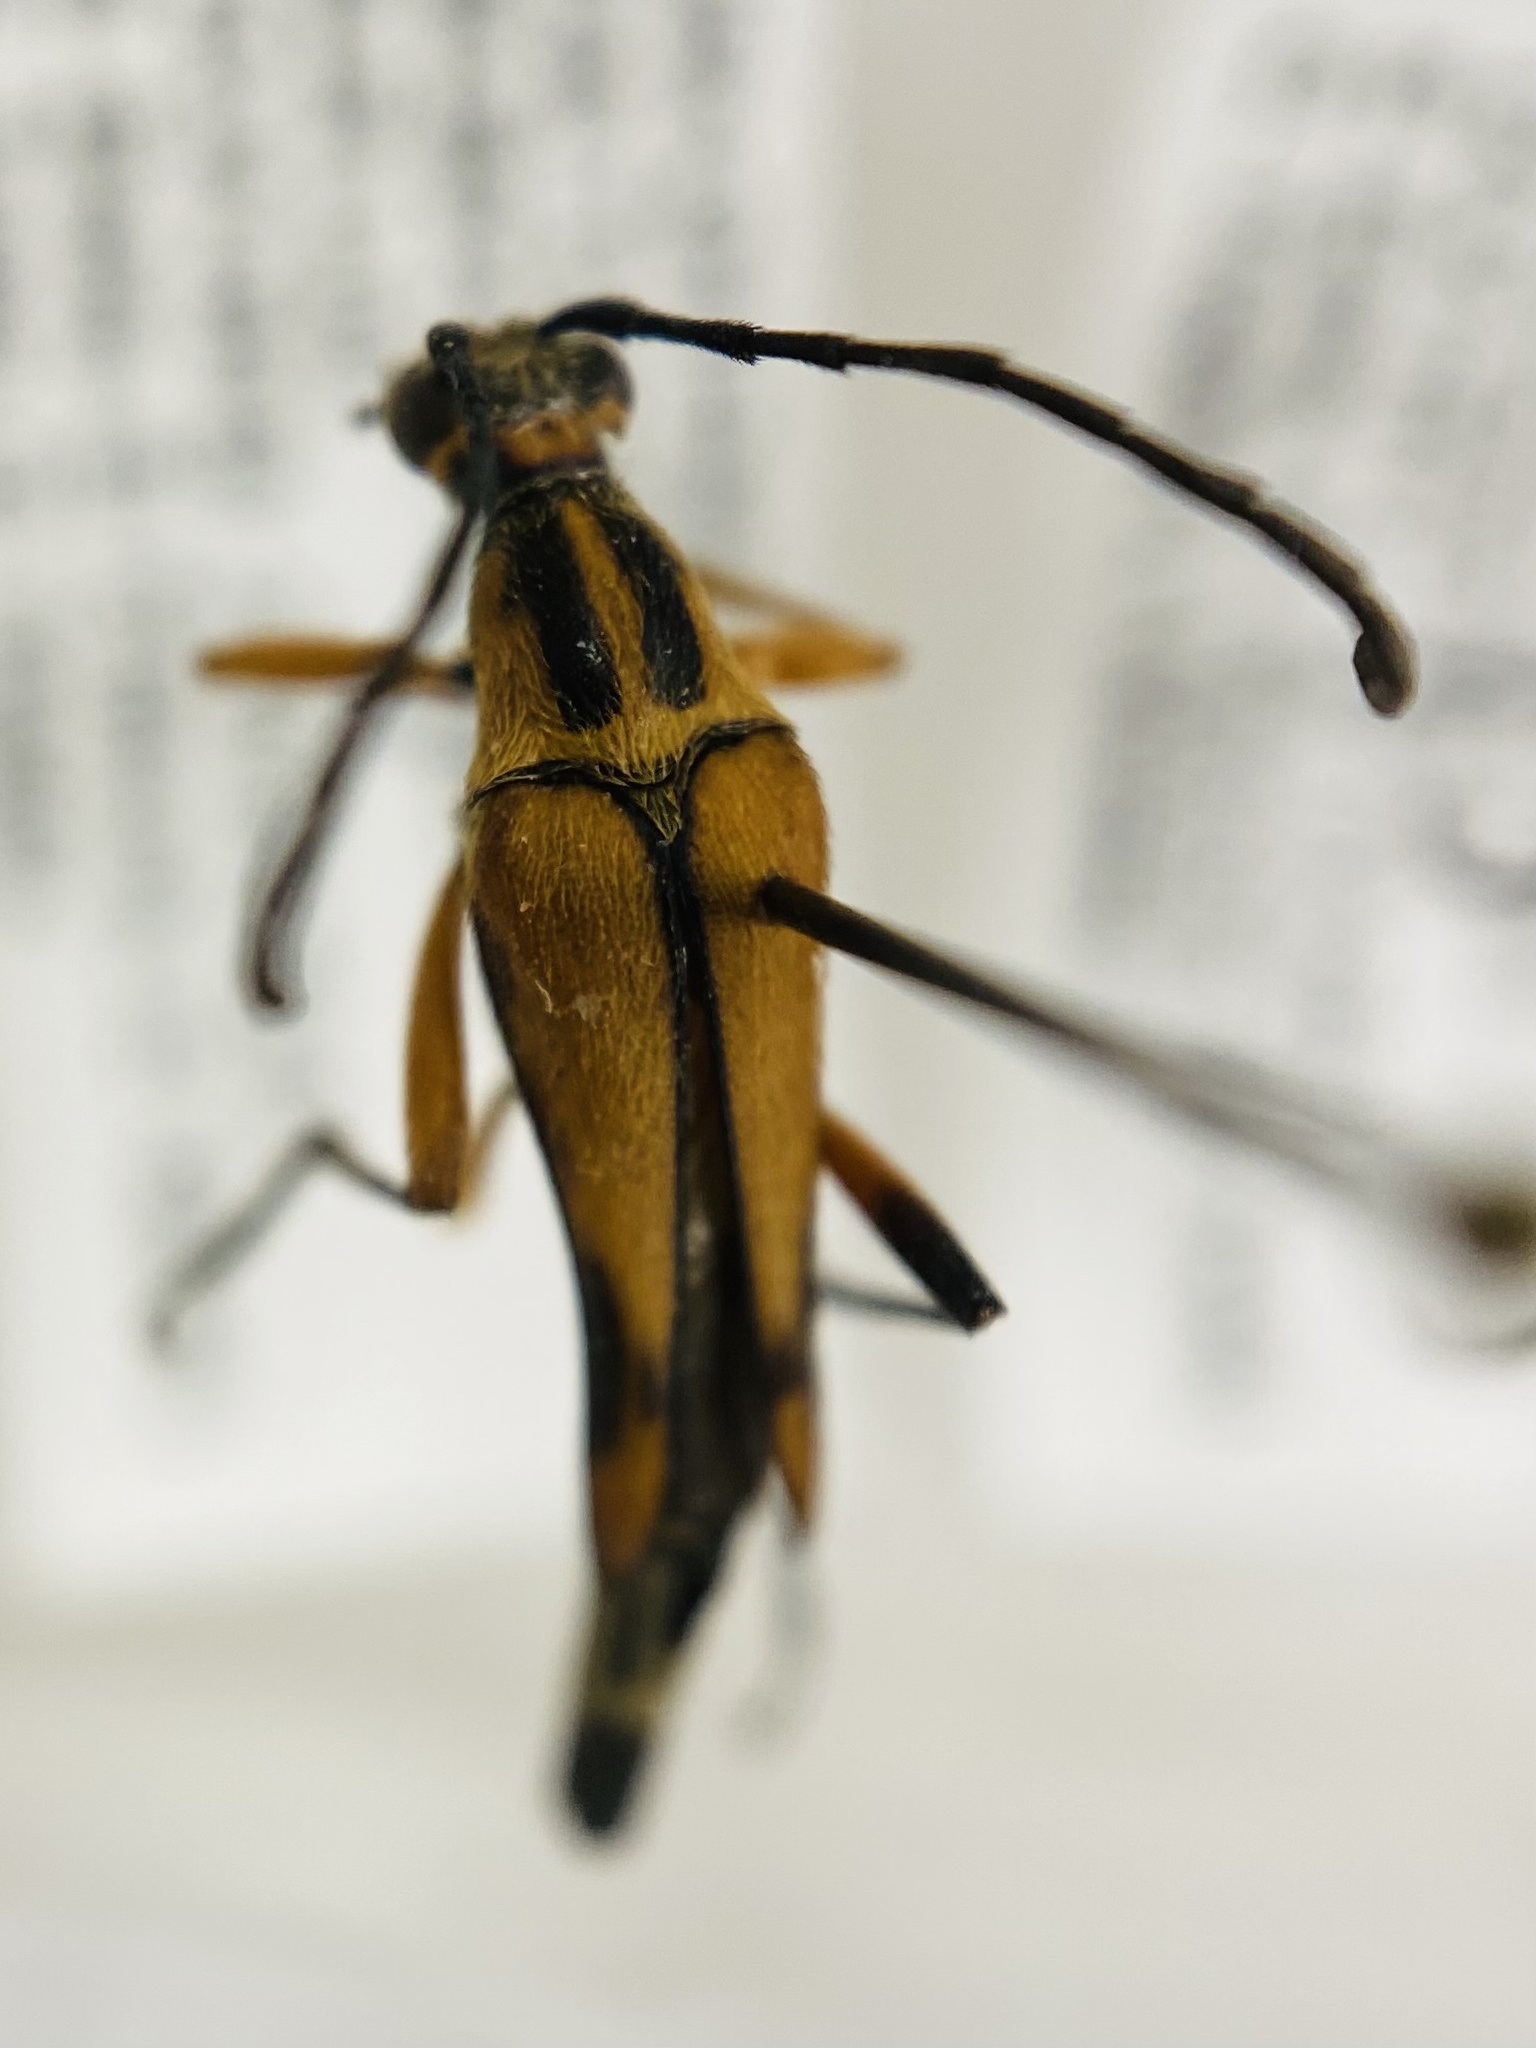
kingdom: Animalia
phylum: Arthropoda
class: Insecta
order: Coleoptera
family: Cerambycidae
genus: Strangalia
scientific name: Strangalia famelica
